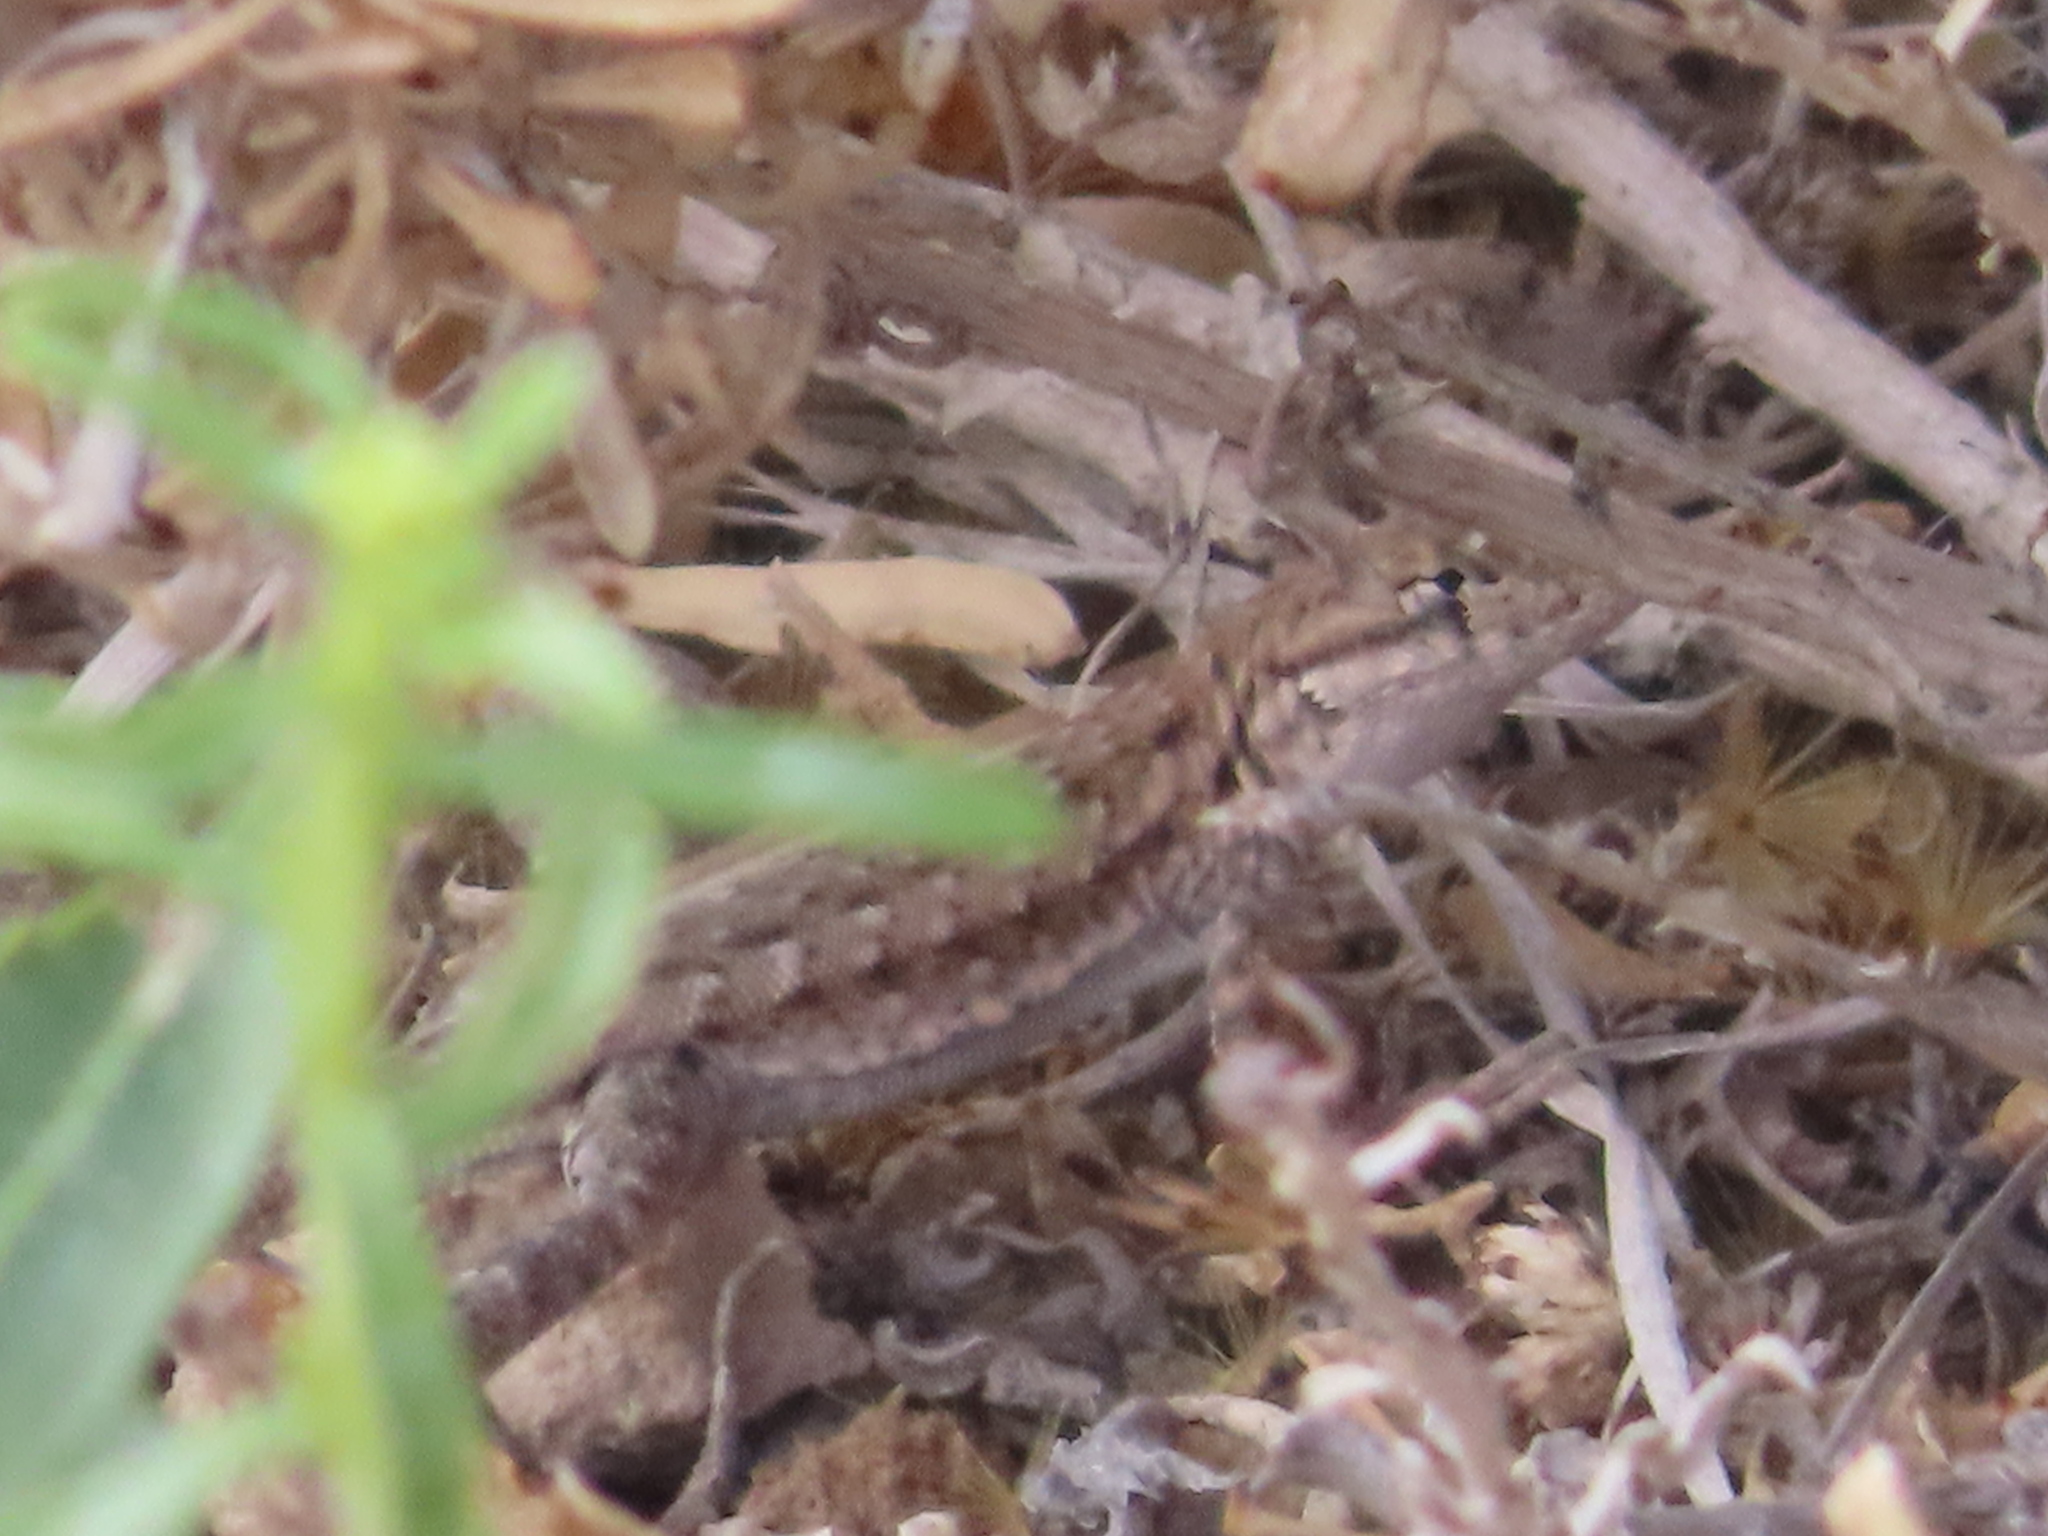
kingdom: Animalia
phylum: Chordata
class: Squamata
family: Phrynosomatidae
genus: Uta
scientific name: Uta stansburiana
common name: Side-blotched lizard
